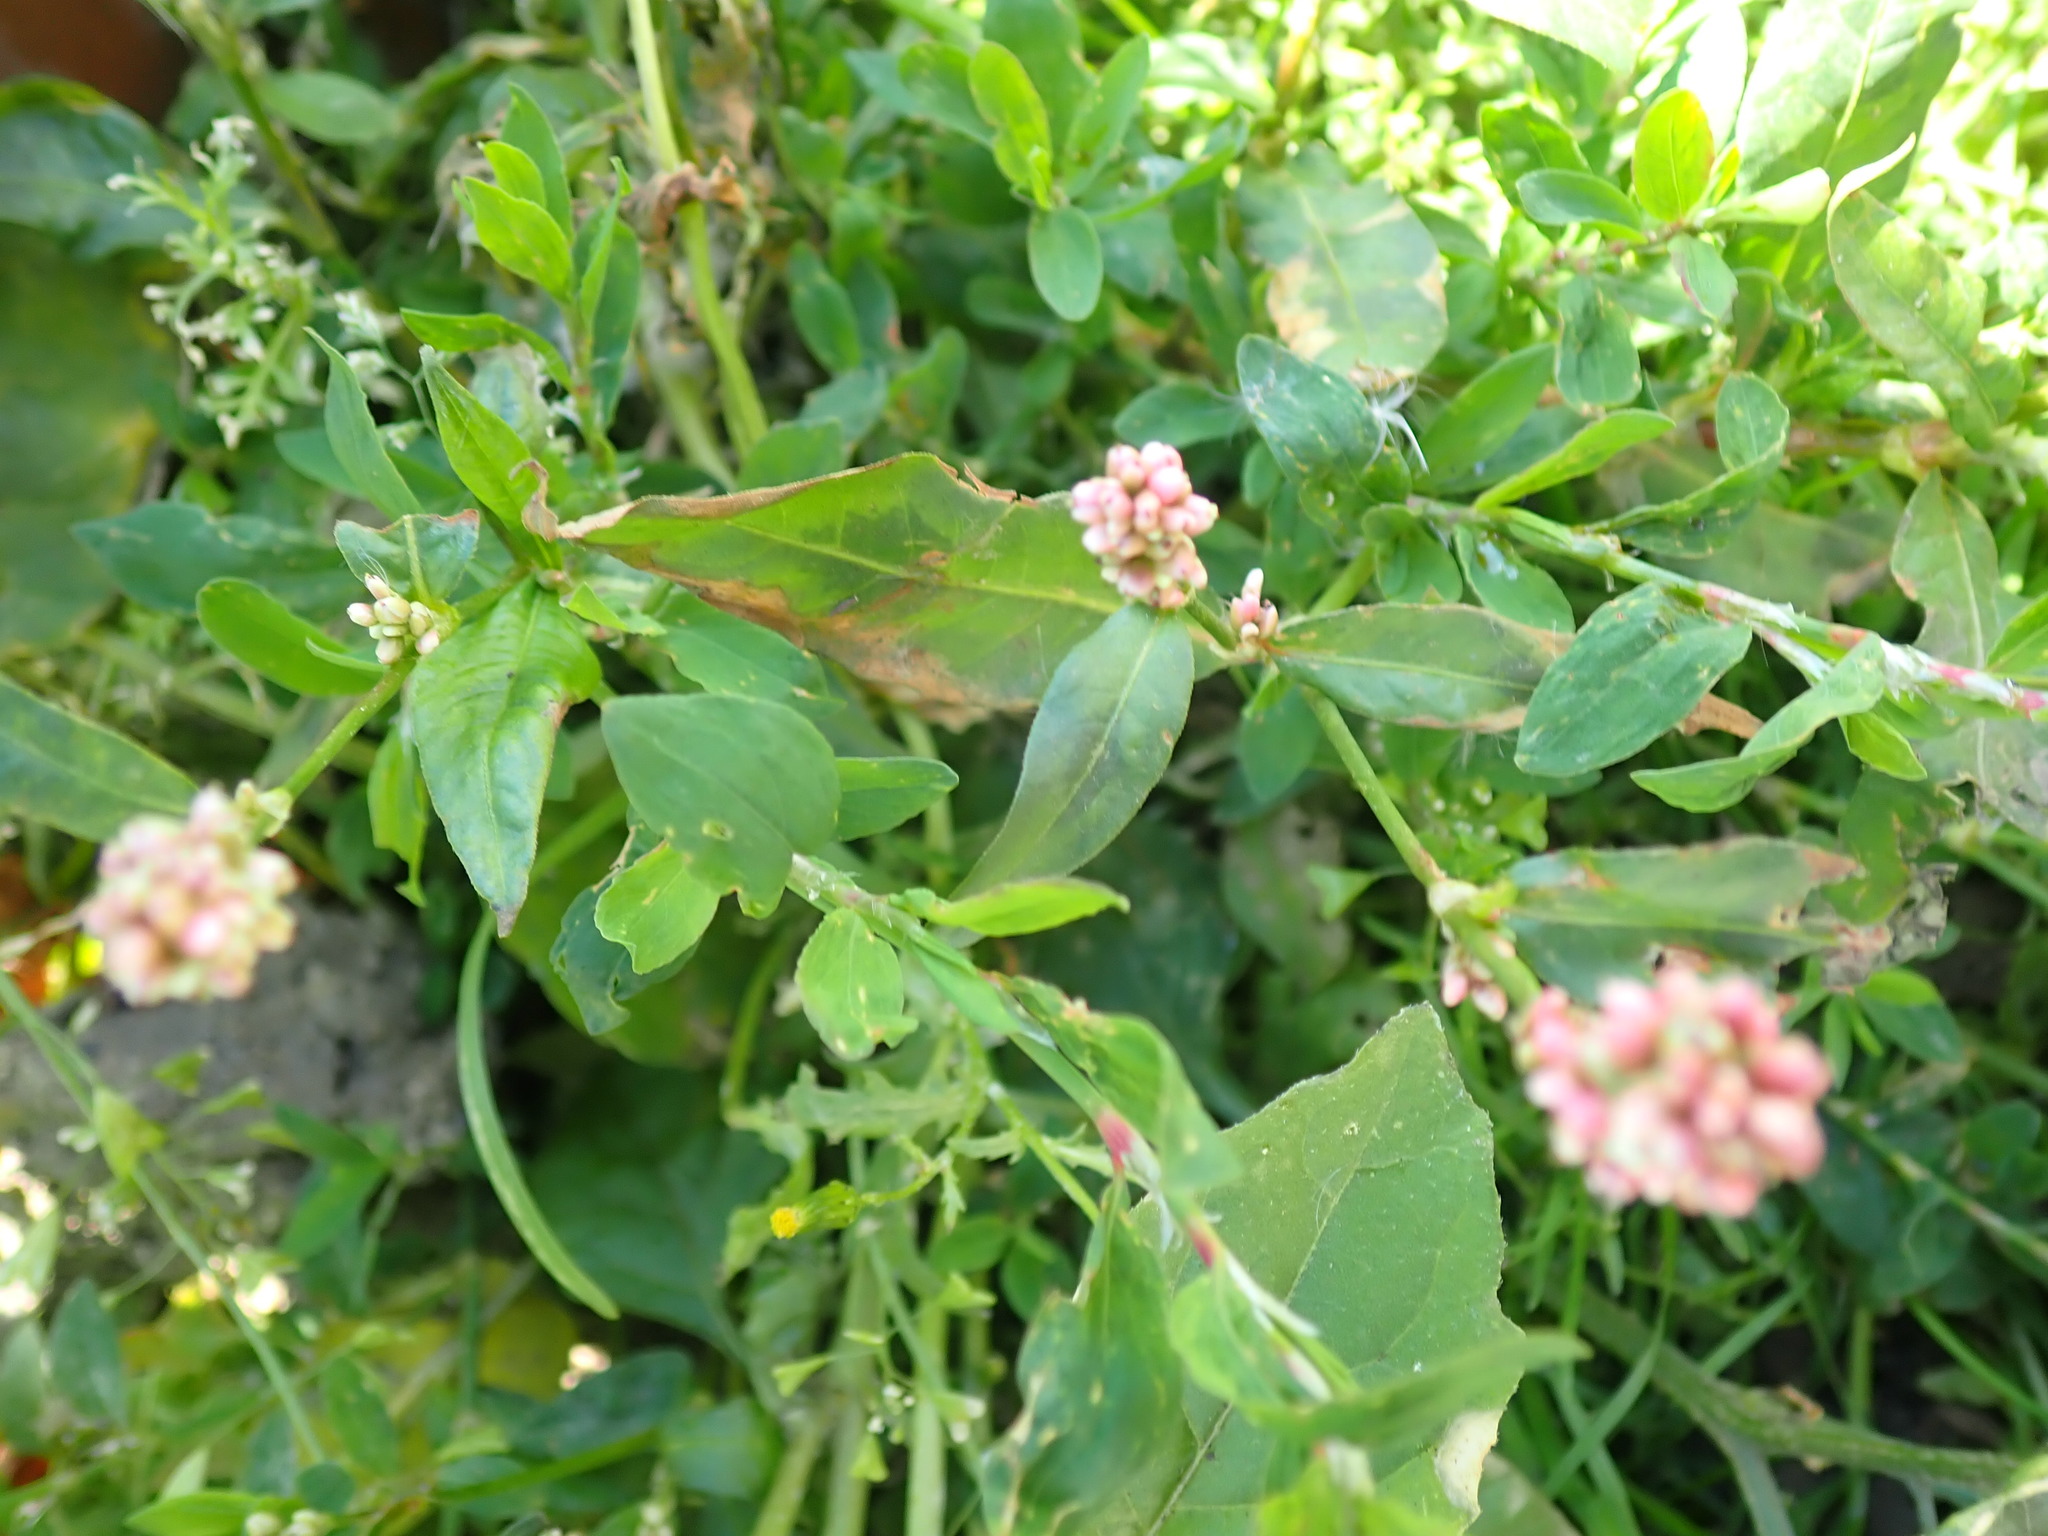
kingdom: Plantae
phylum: Tracheophyta
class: Magnoliopsida
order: Caryophyllales
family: Polygonaceae
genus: Persicaria
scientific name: Persicaria maculosa
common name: Redshank
